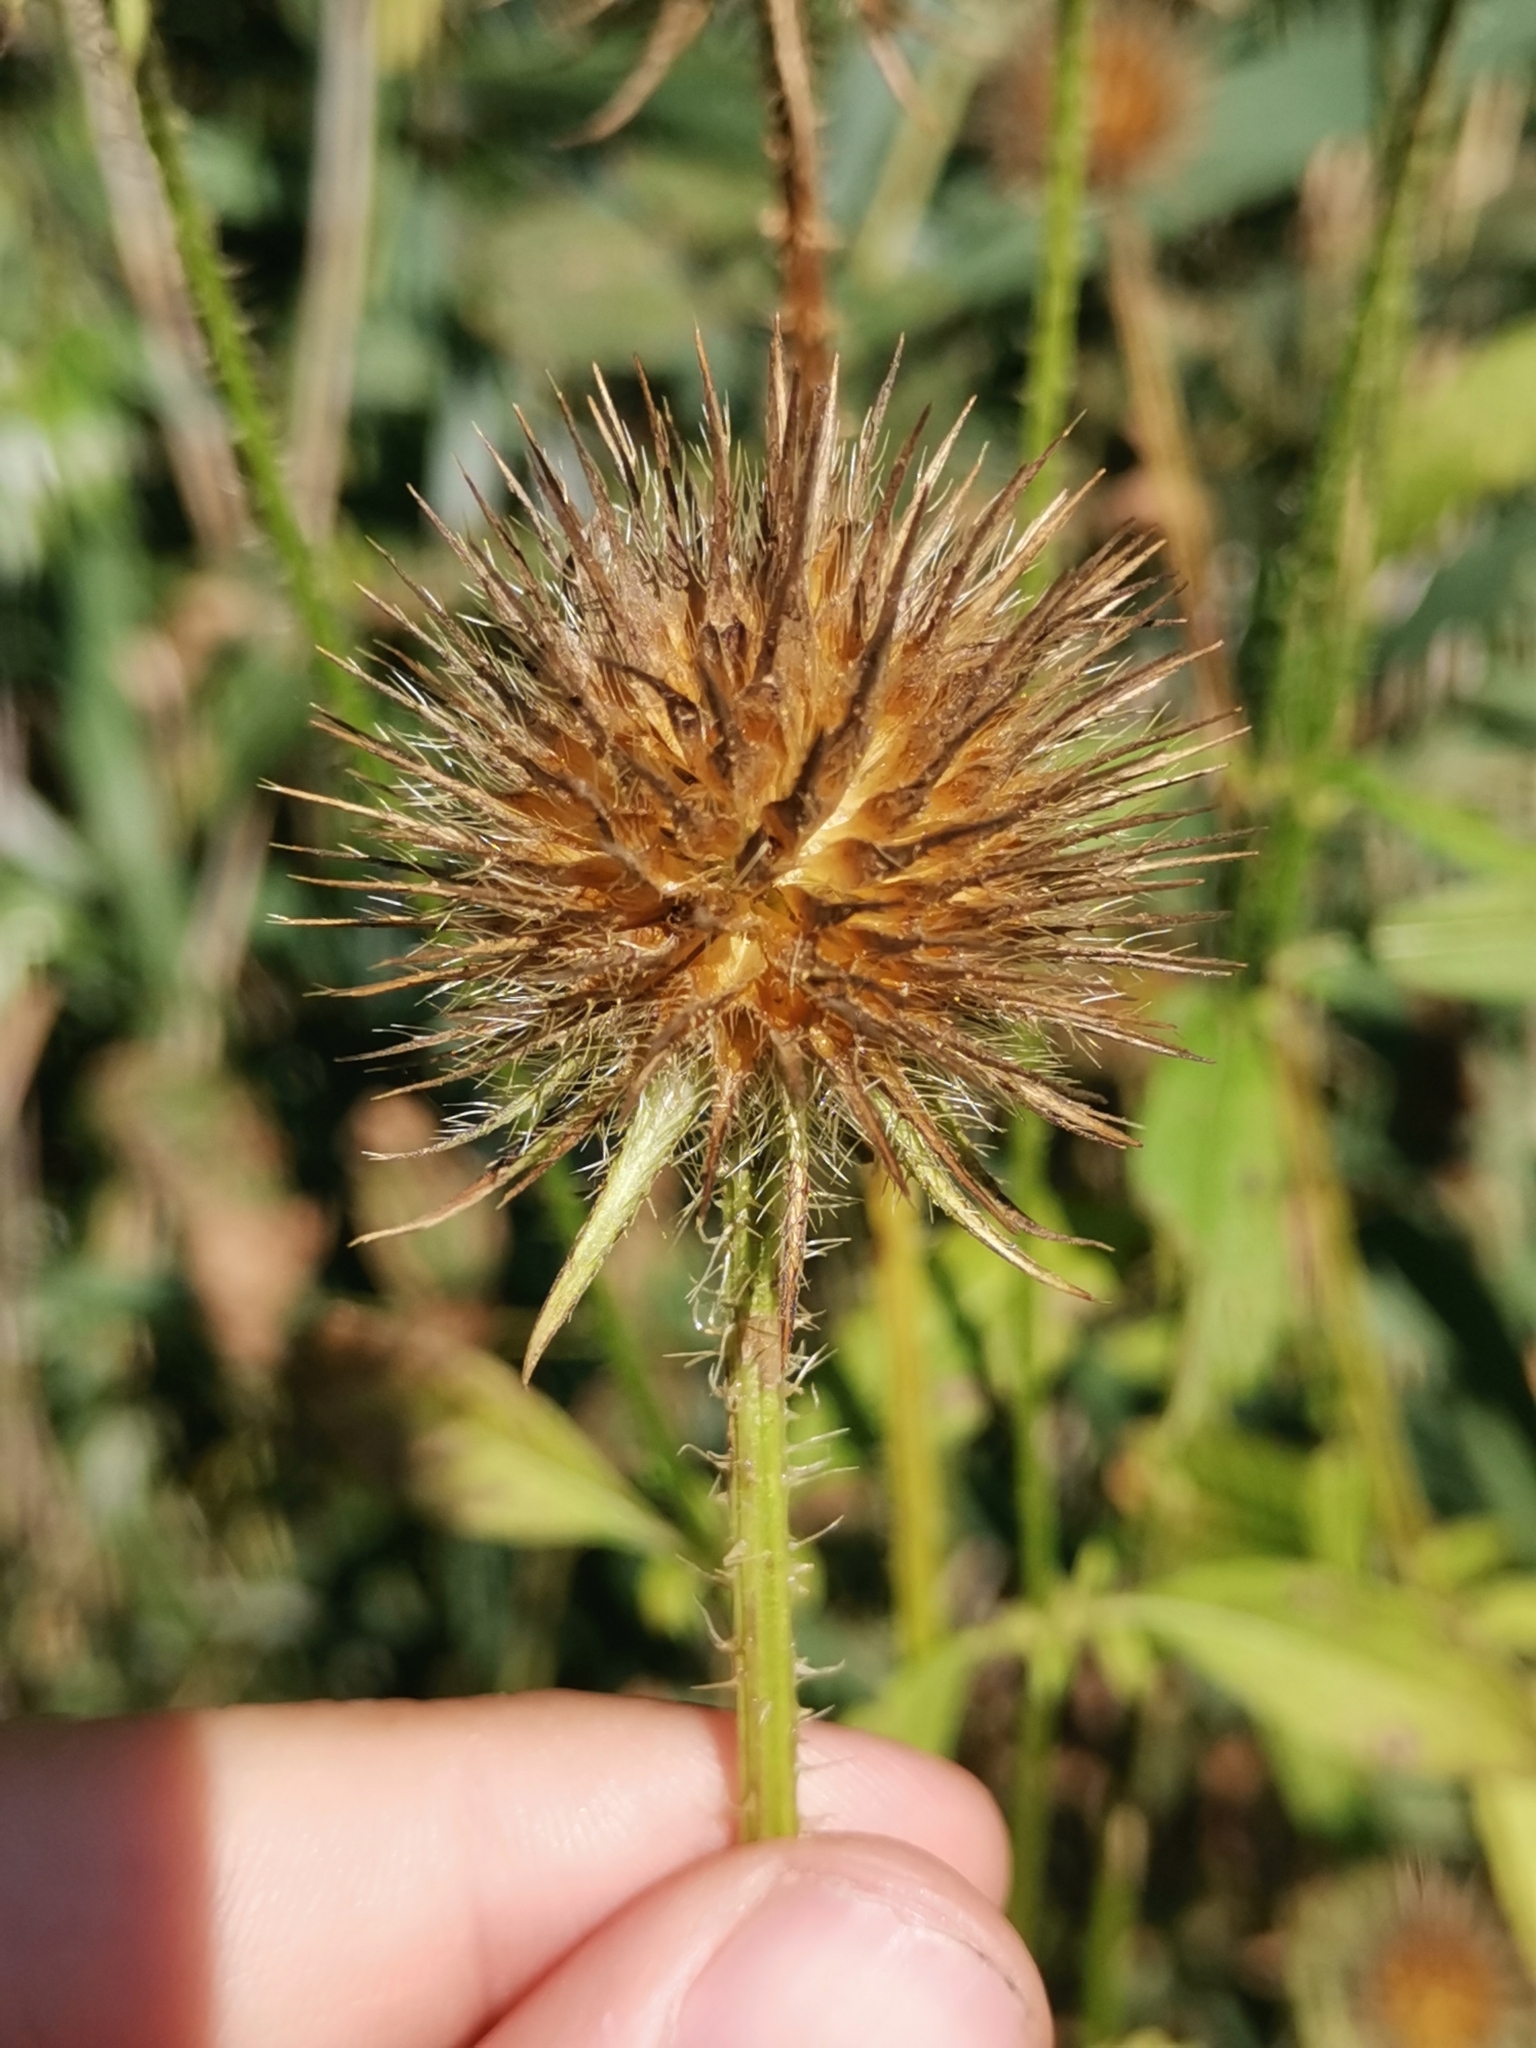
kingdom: Plantae
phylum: Tracheophyta
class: Magnoliopsida
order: Dipsacales
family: Caprifoliaceae
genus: Dipsacus
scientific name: Dipsacus strigosus
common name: Yellow-flowered teasel
